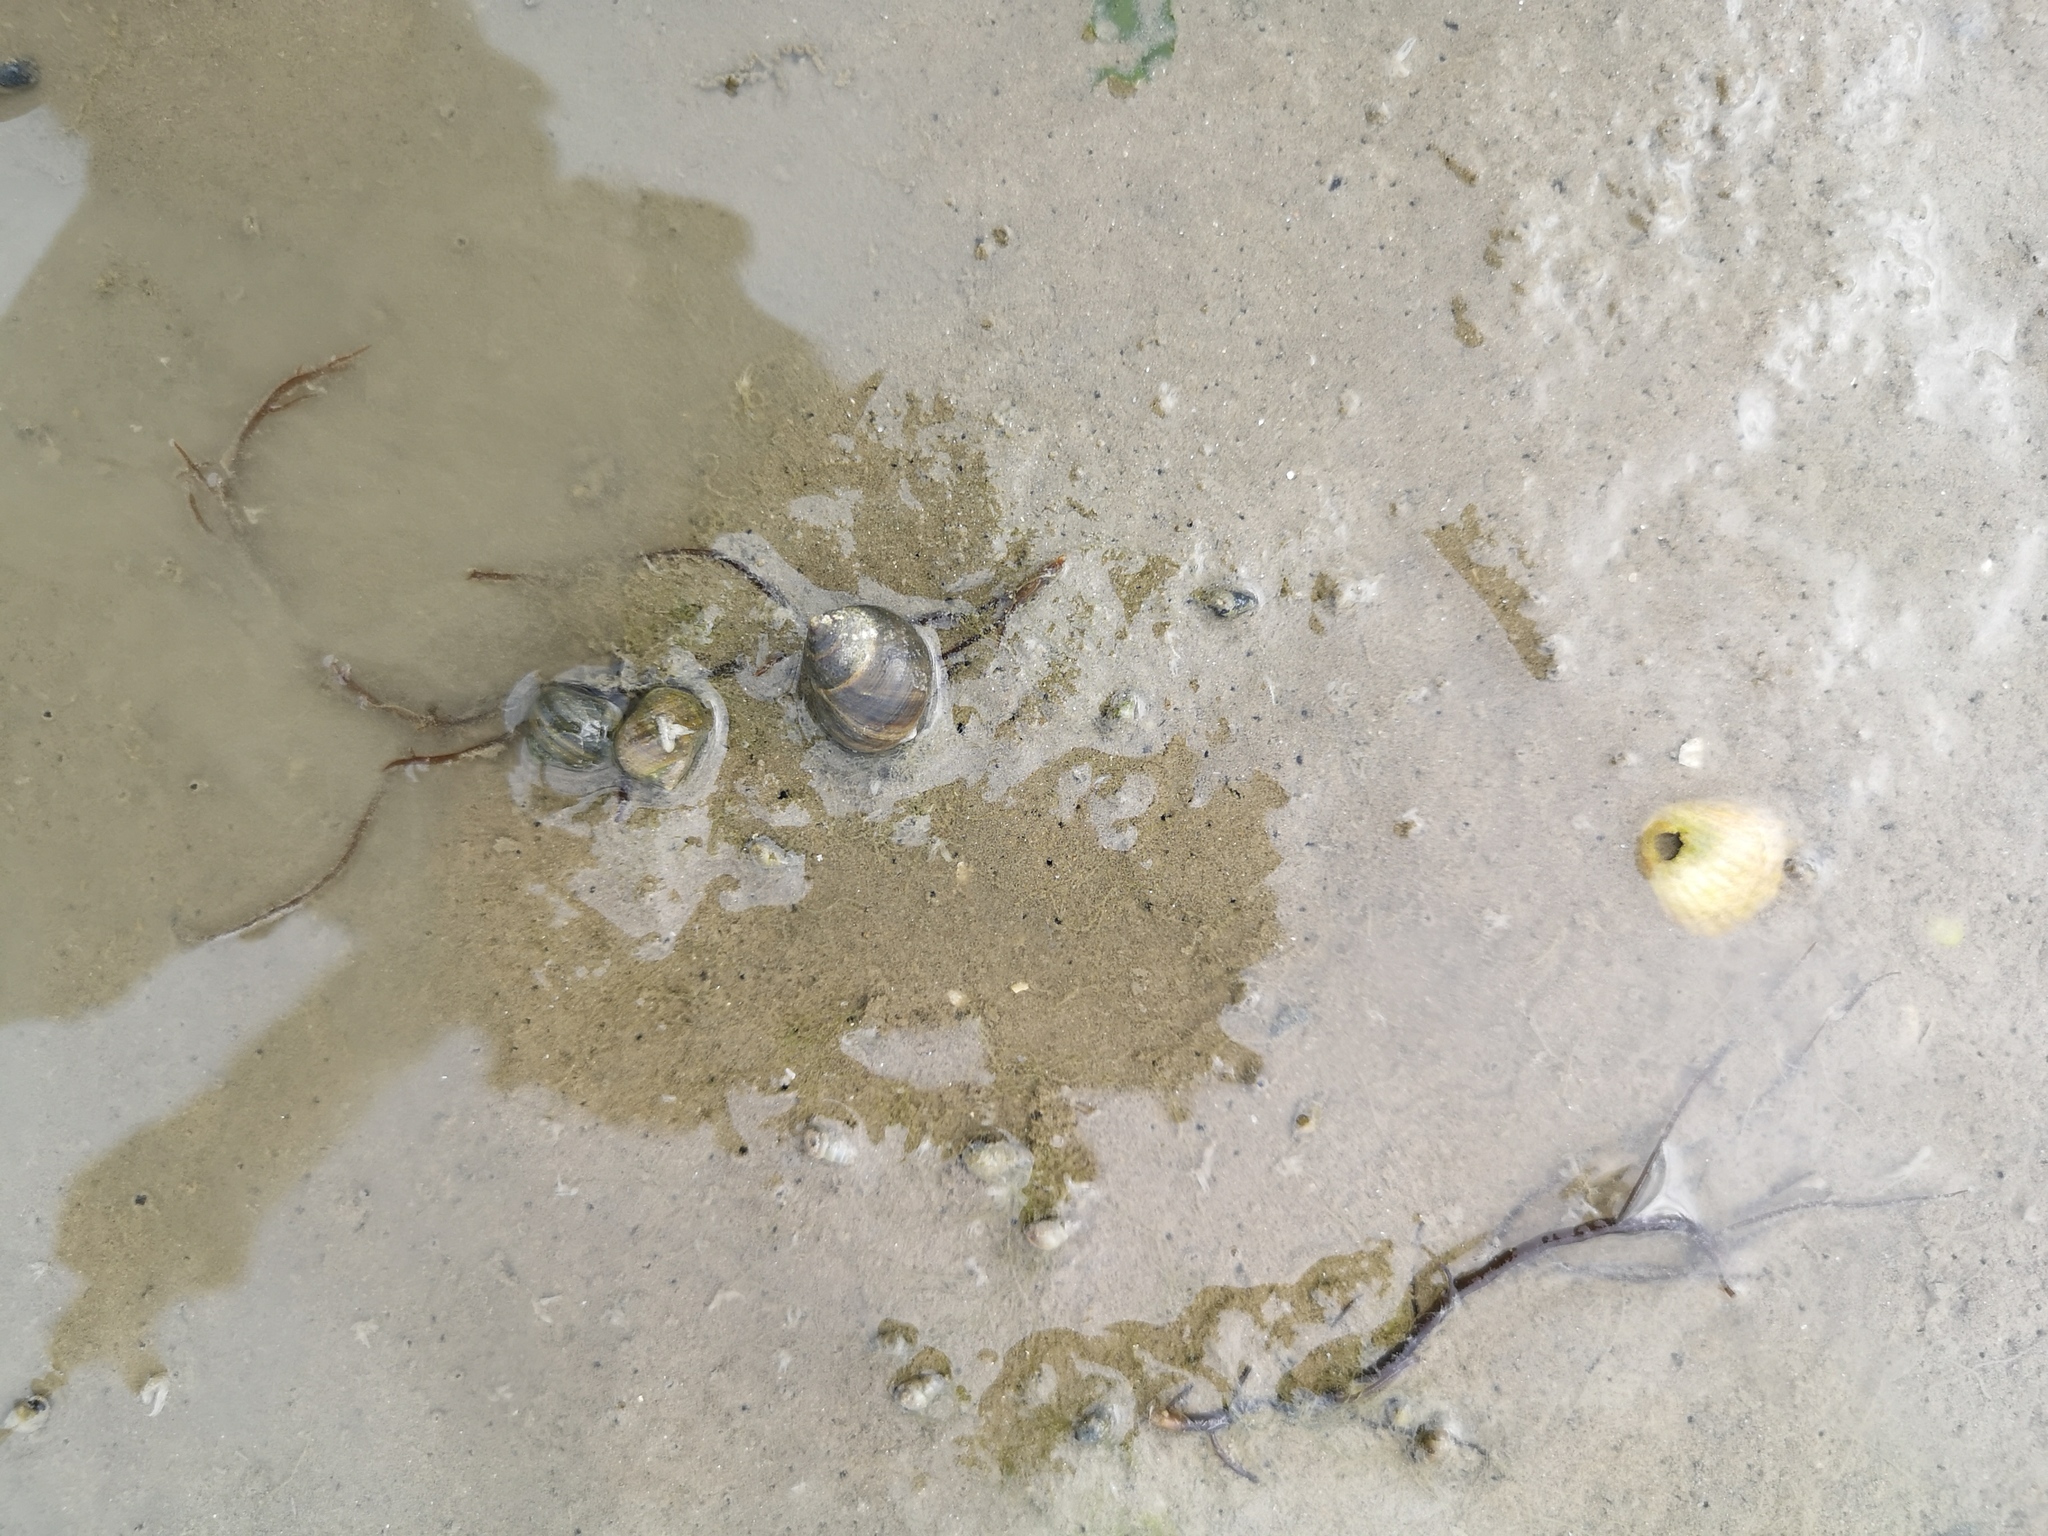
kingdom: Animalia
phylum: Mollusca
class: Gastropoda
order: Littorinimorpha
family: Littorinidae
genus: Littorina
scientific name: Littorina littorea
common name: Common periwinkle
